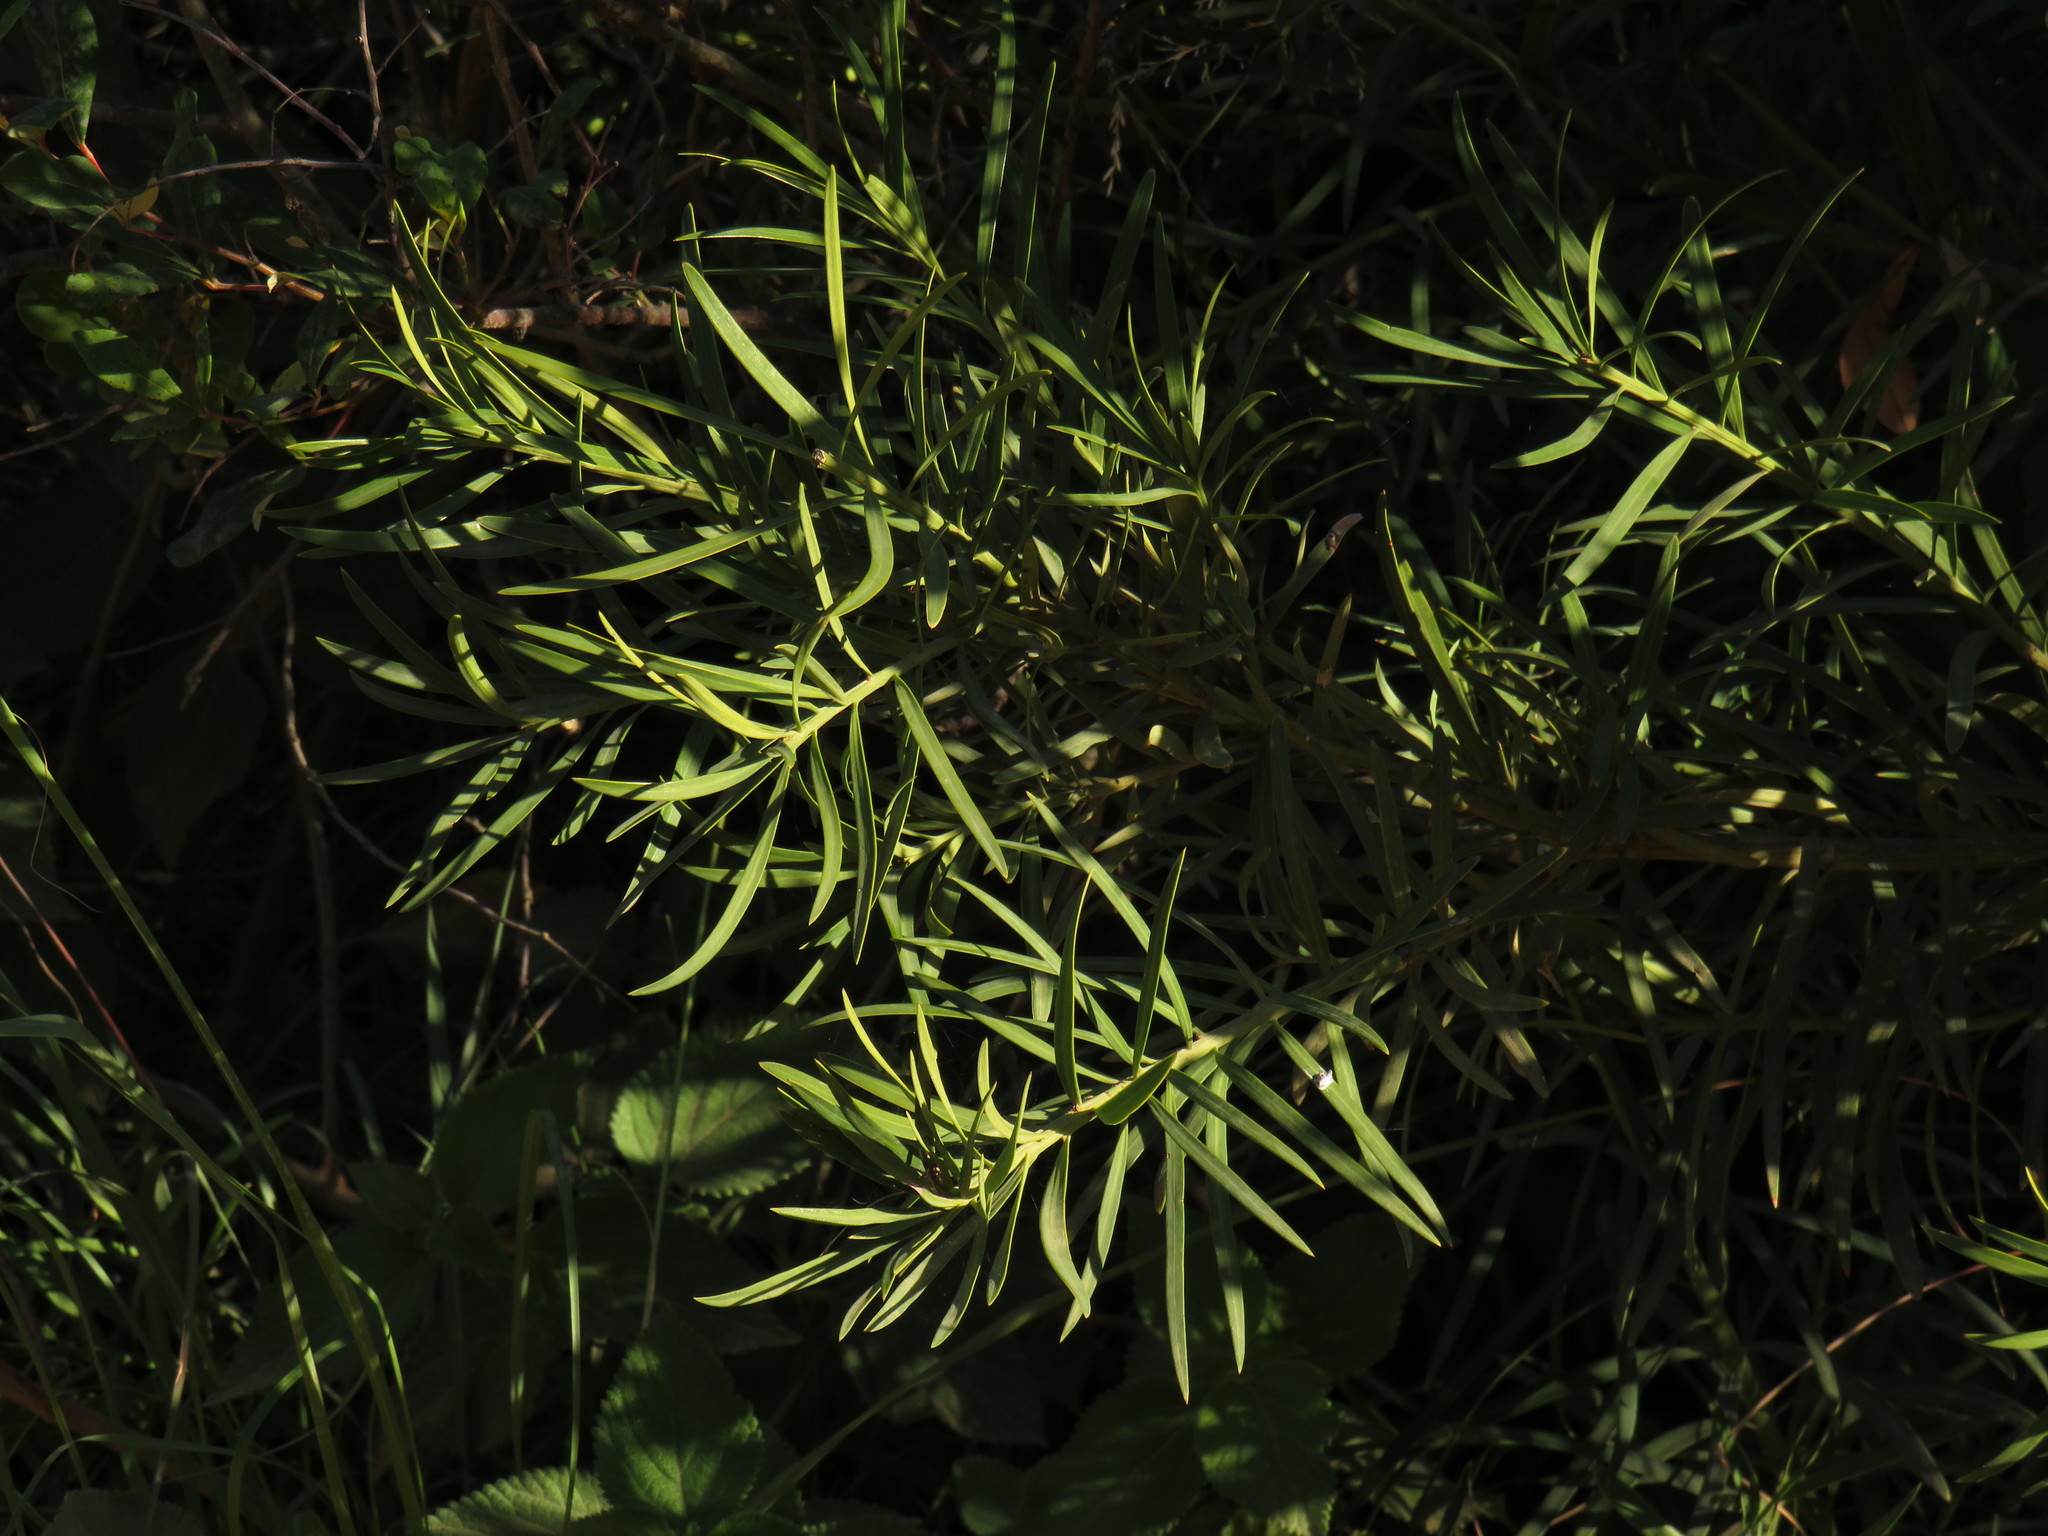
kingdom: Plantae
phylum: Tracheophyta
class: Pinopsida
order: Pinales
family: Podocarpaceae
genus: Podocarpus
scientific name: Podocarpus elongatus
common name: Breede river yellowwood
